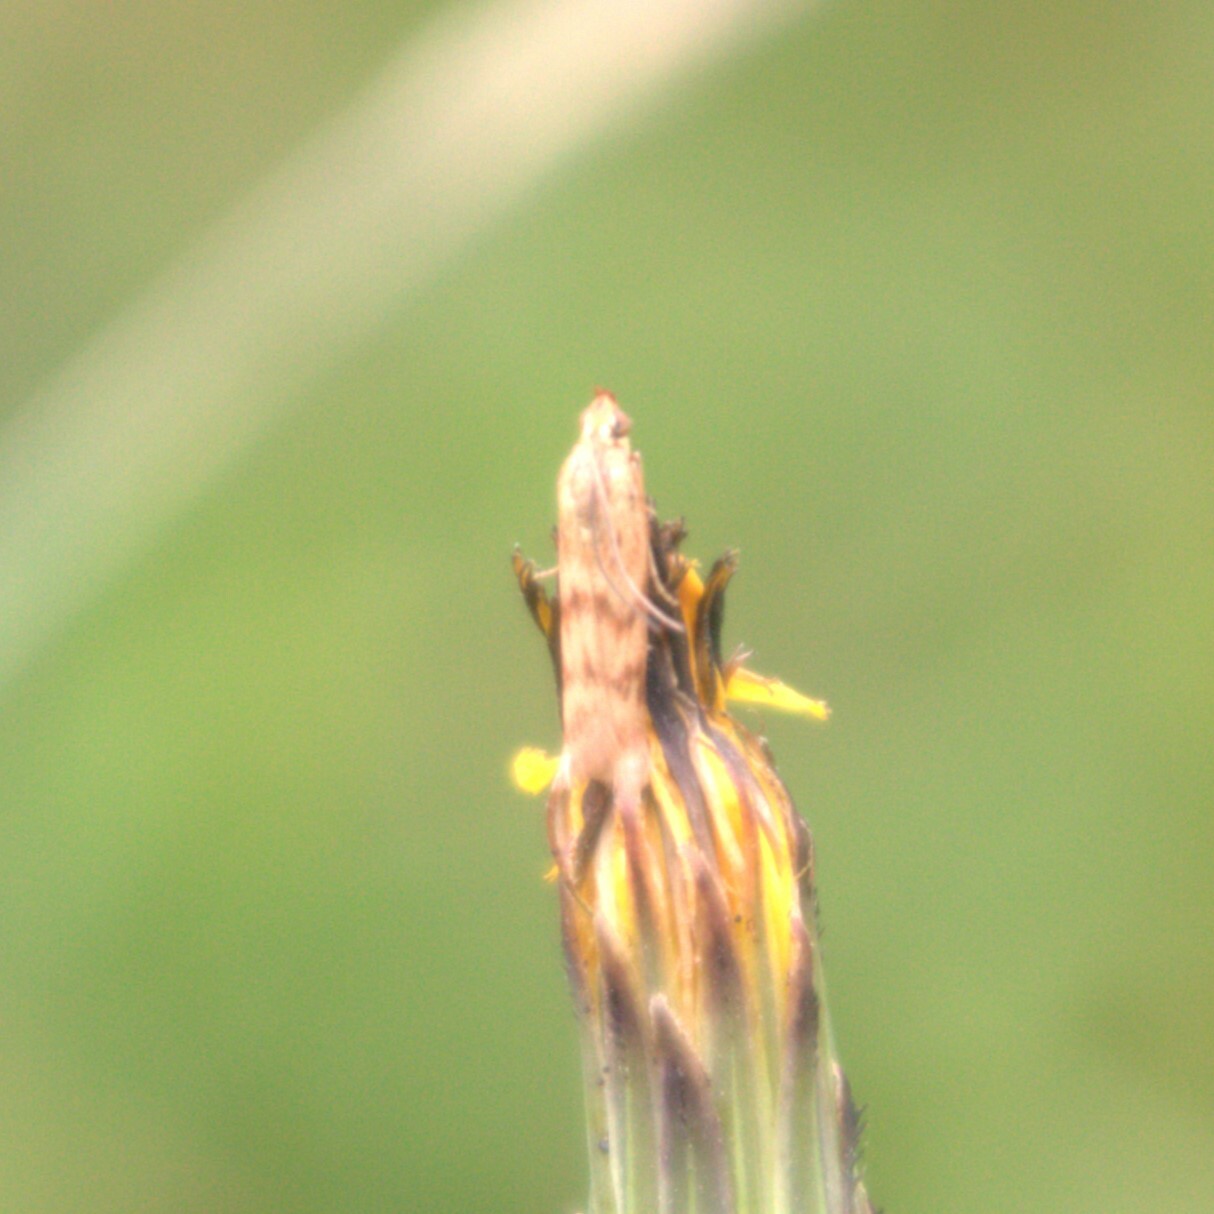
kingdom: Animalia
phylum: Arthropoda
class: Insecta
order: Lepidoptera
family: Pyralidae
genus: Homoeosoma
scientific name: Homoeosoma sinuella
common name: Twin-barred knot-horn
